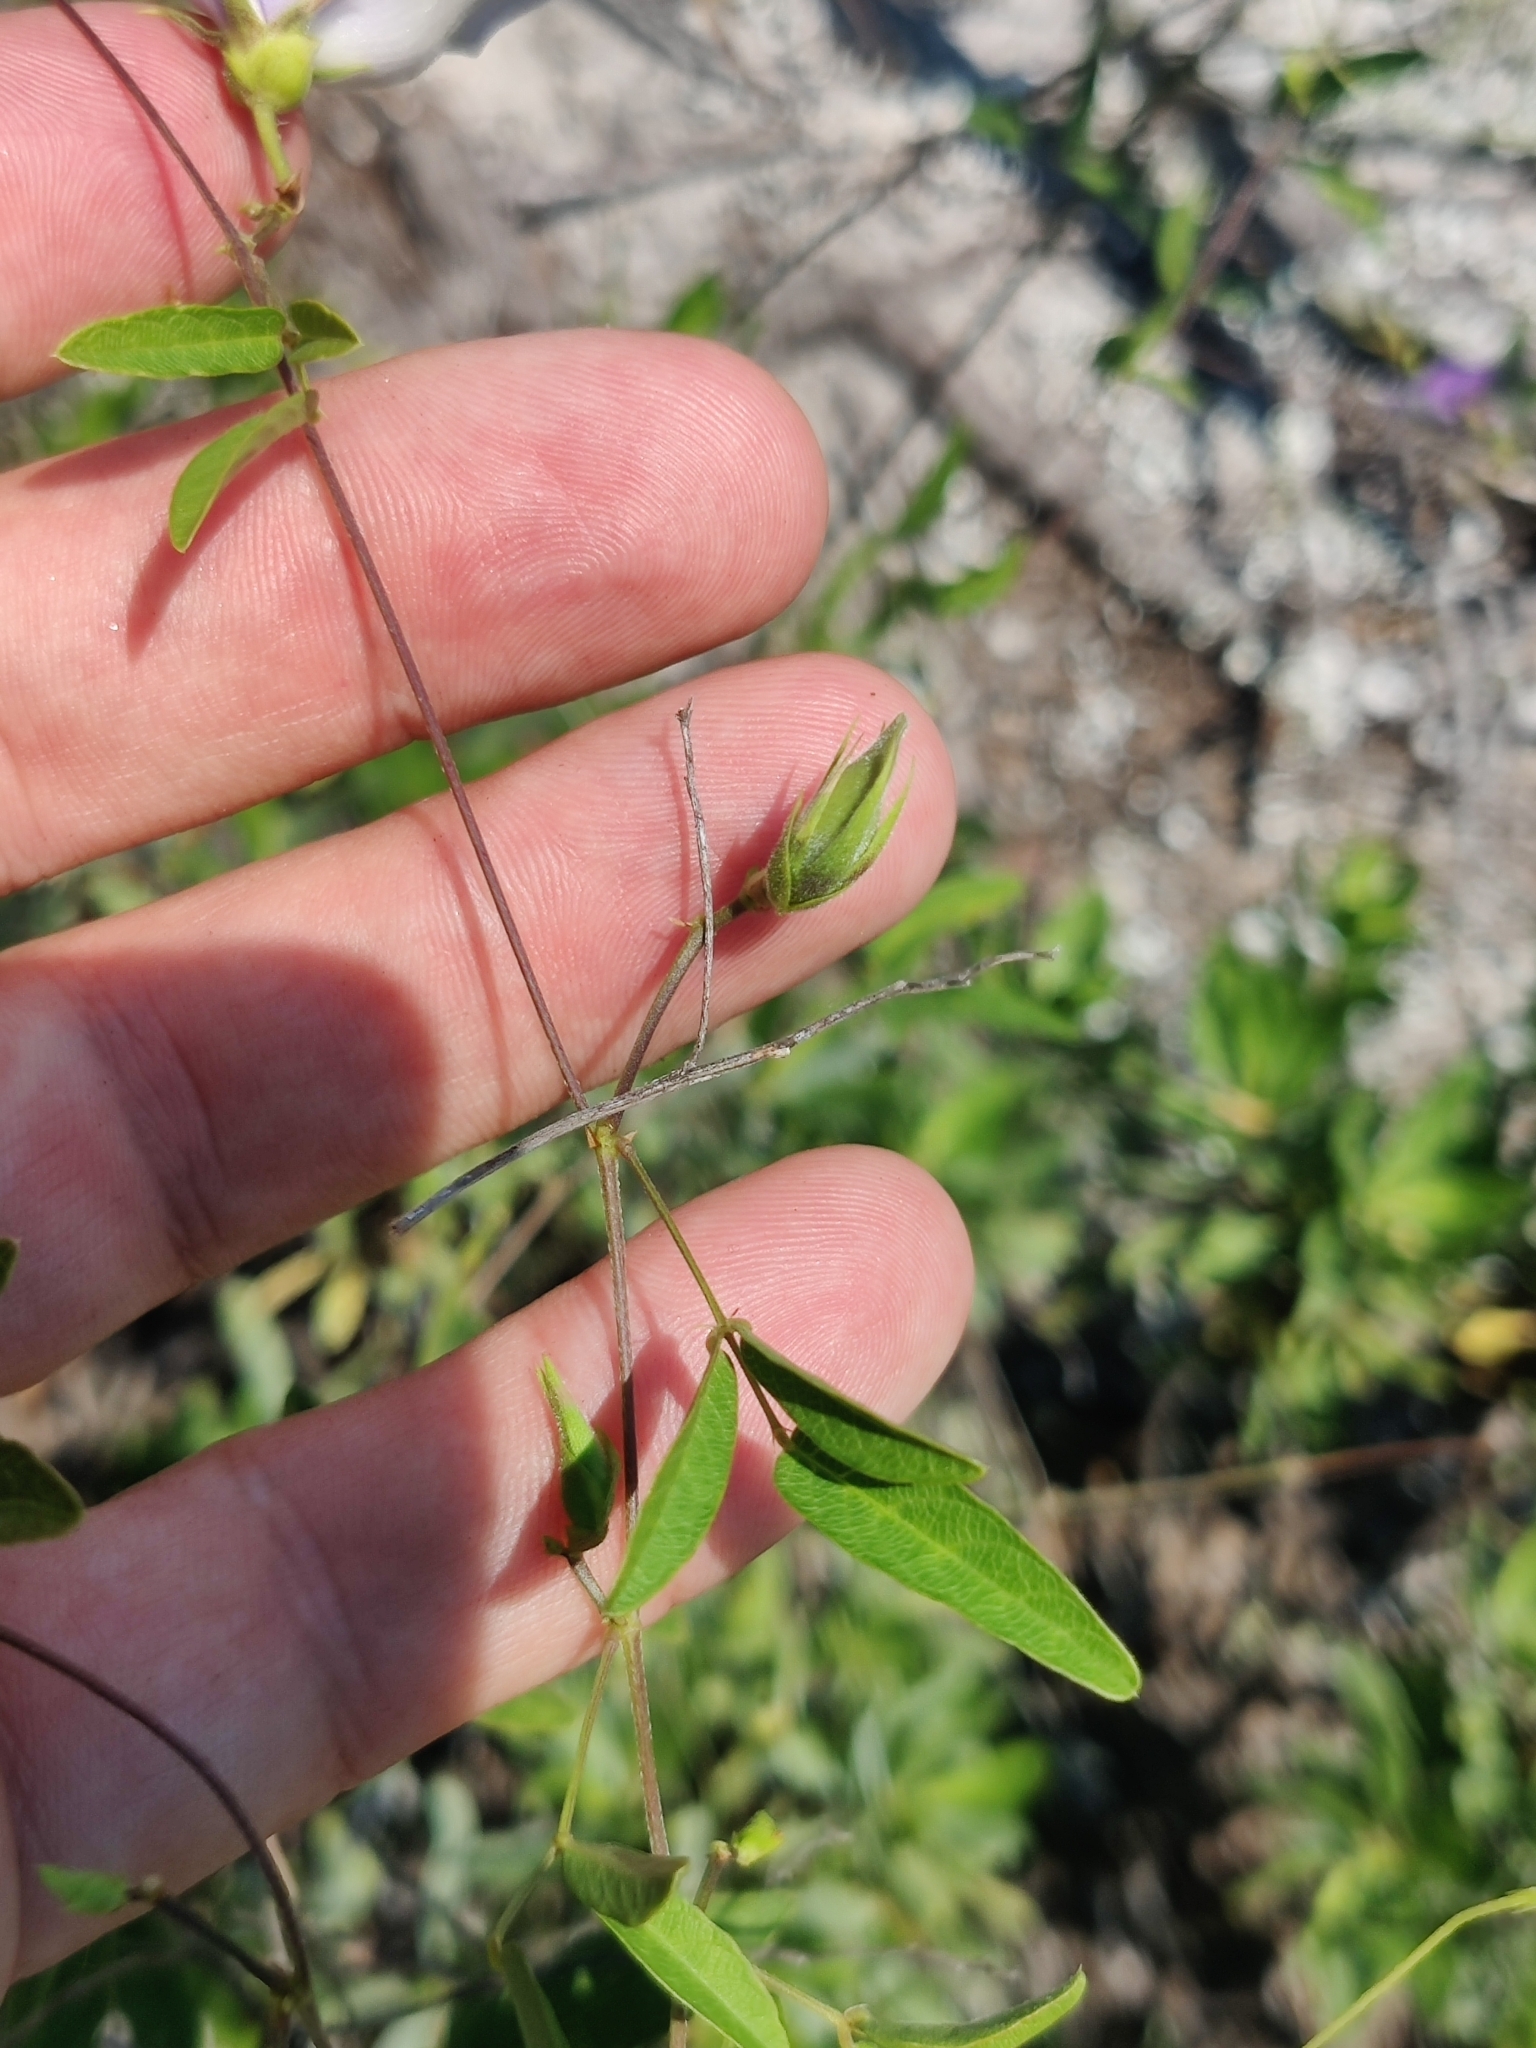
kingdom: Plantae
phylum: Tracheophyta
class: Magnoliopsida
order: Fabales
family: Fabaceae
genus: Centrosema
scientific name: Centrosema virginianum
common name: Butterfly-pea
